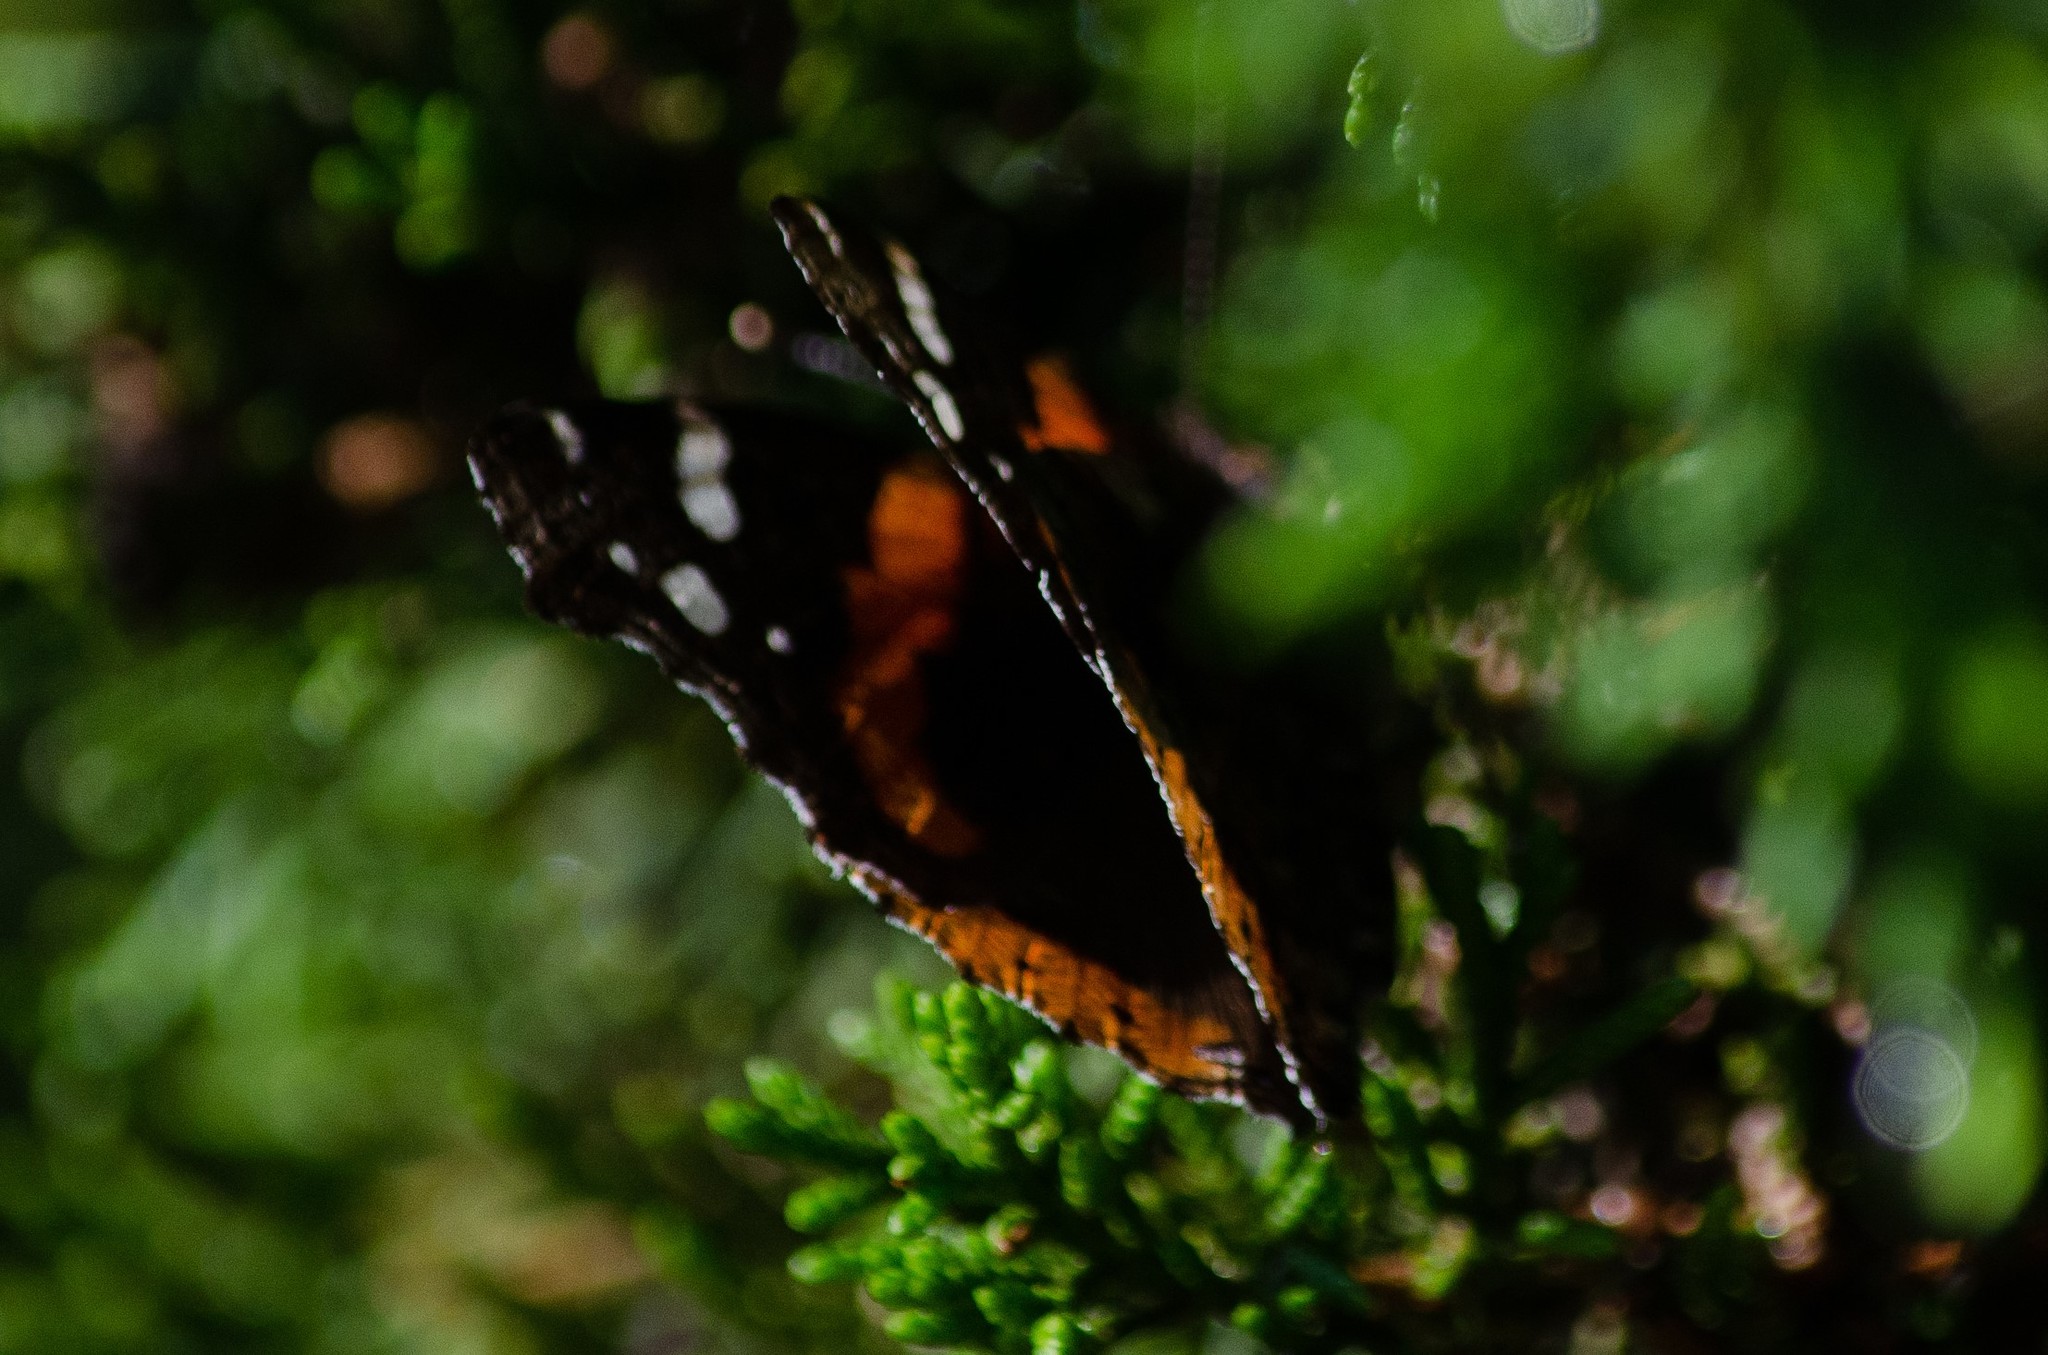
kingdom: Animalia
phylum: Arthropoda
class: Insecta
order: Lepidoptera
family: Nymphalidae
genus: Vanessa
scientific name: Vanessa atalanta
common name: Red admiral
